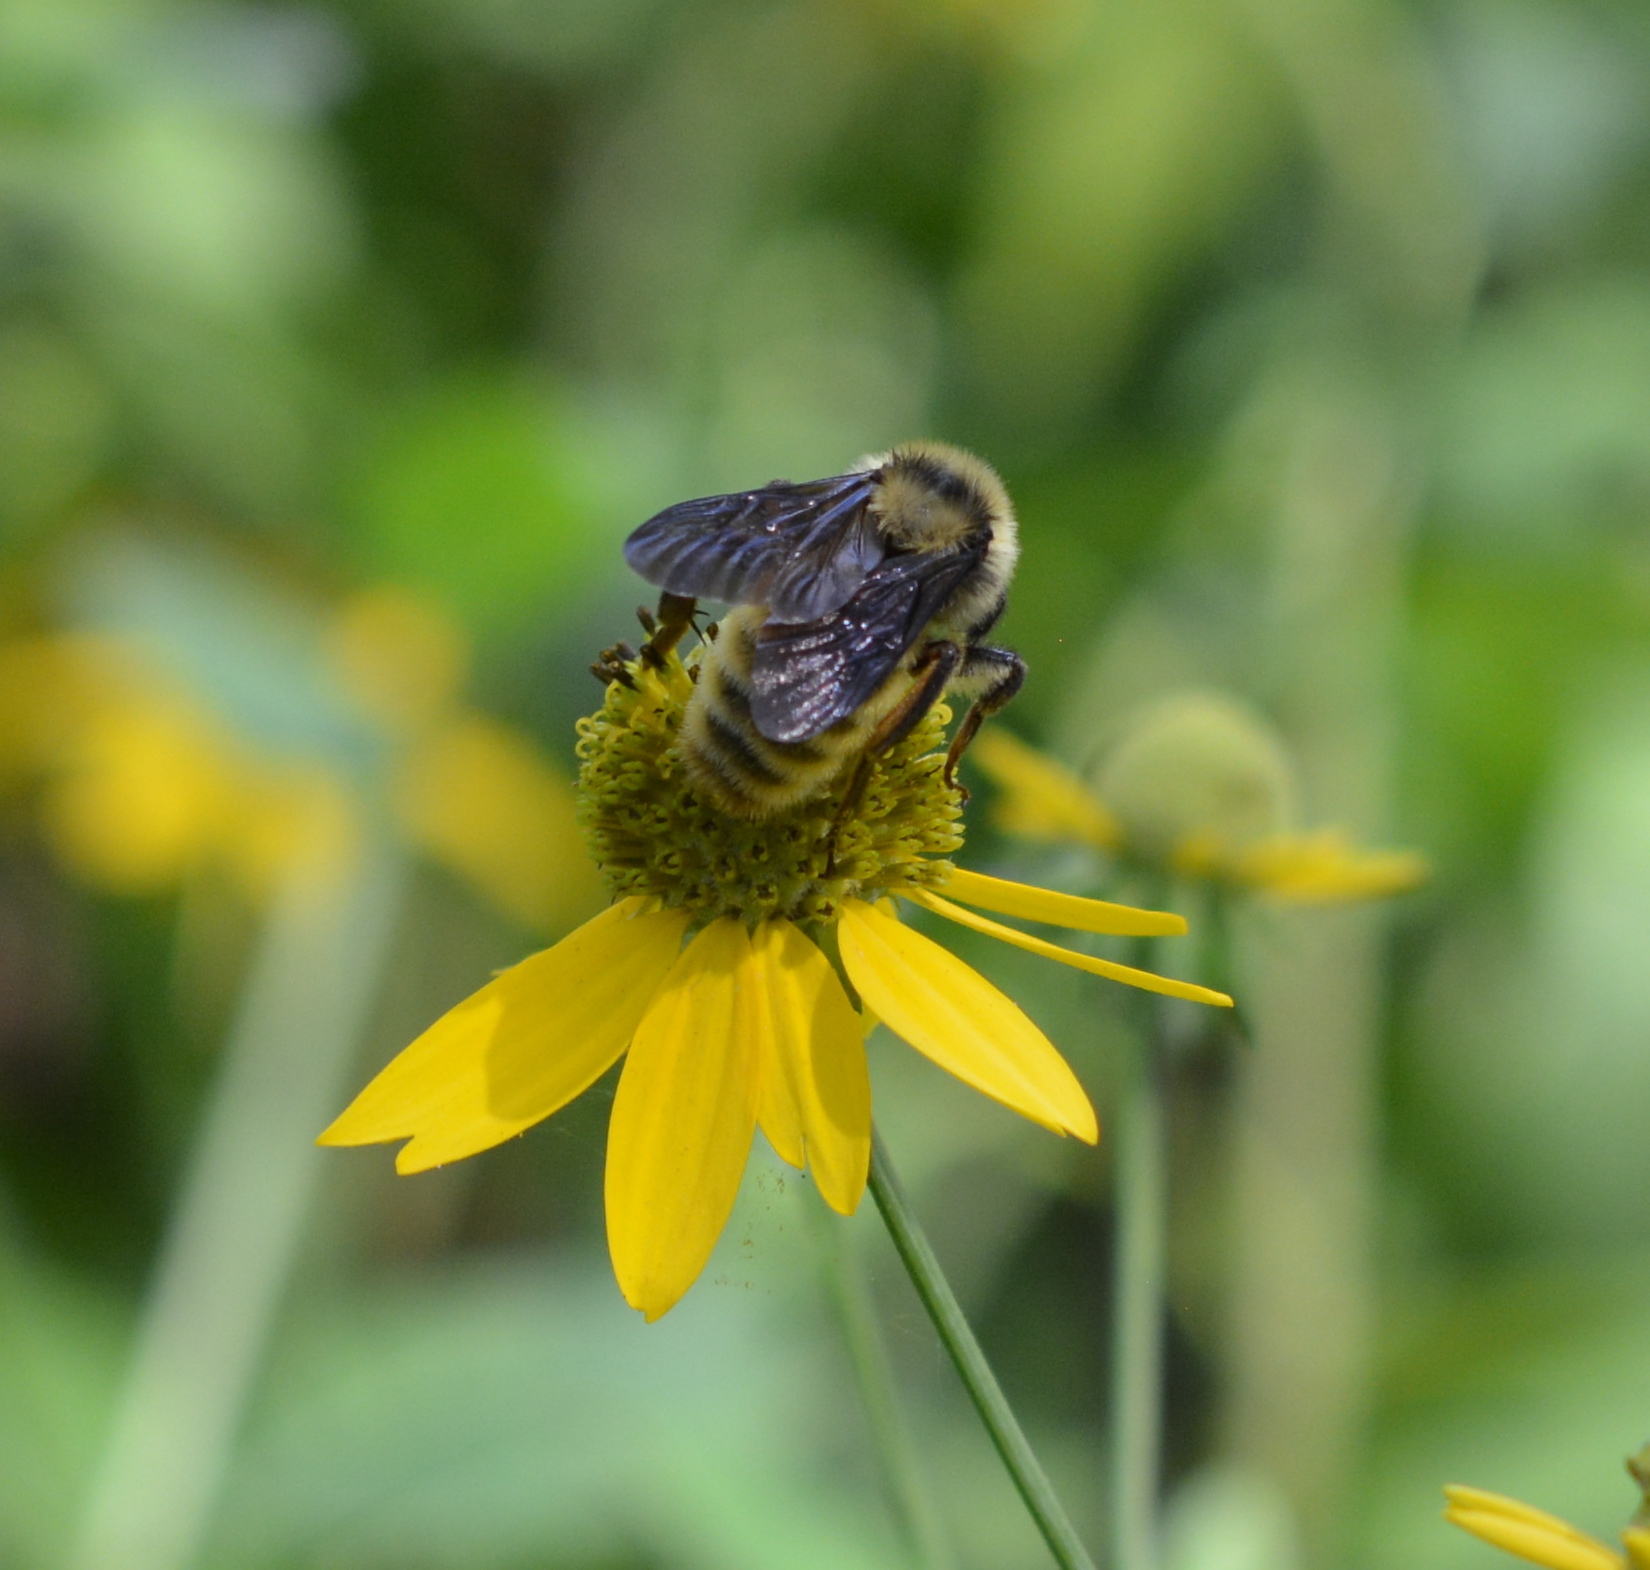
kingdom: Animalia
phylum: Arthropoda
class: Insecta
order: Hymenoptera
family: Apidae
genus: Bombus
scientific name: Bombus pensylvanicus
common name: Bumble bee
